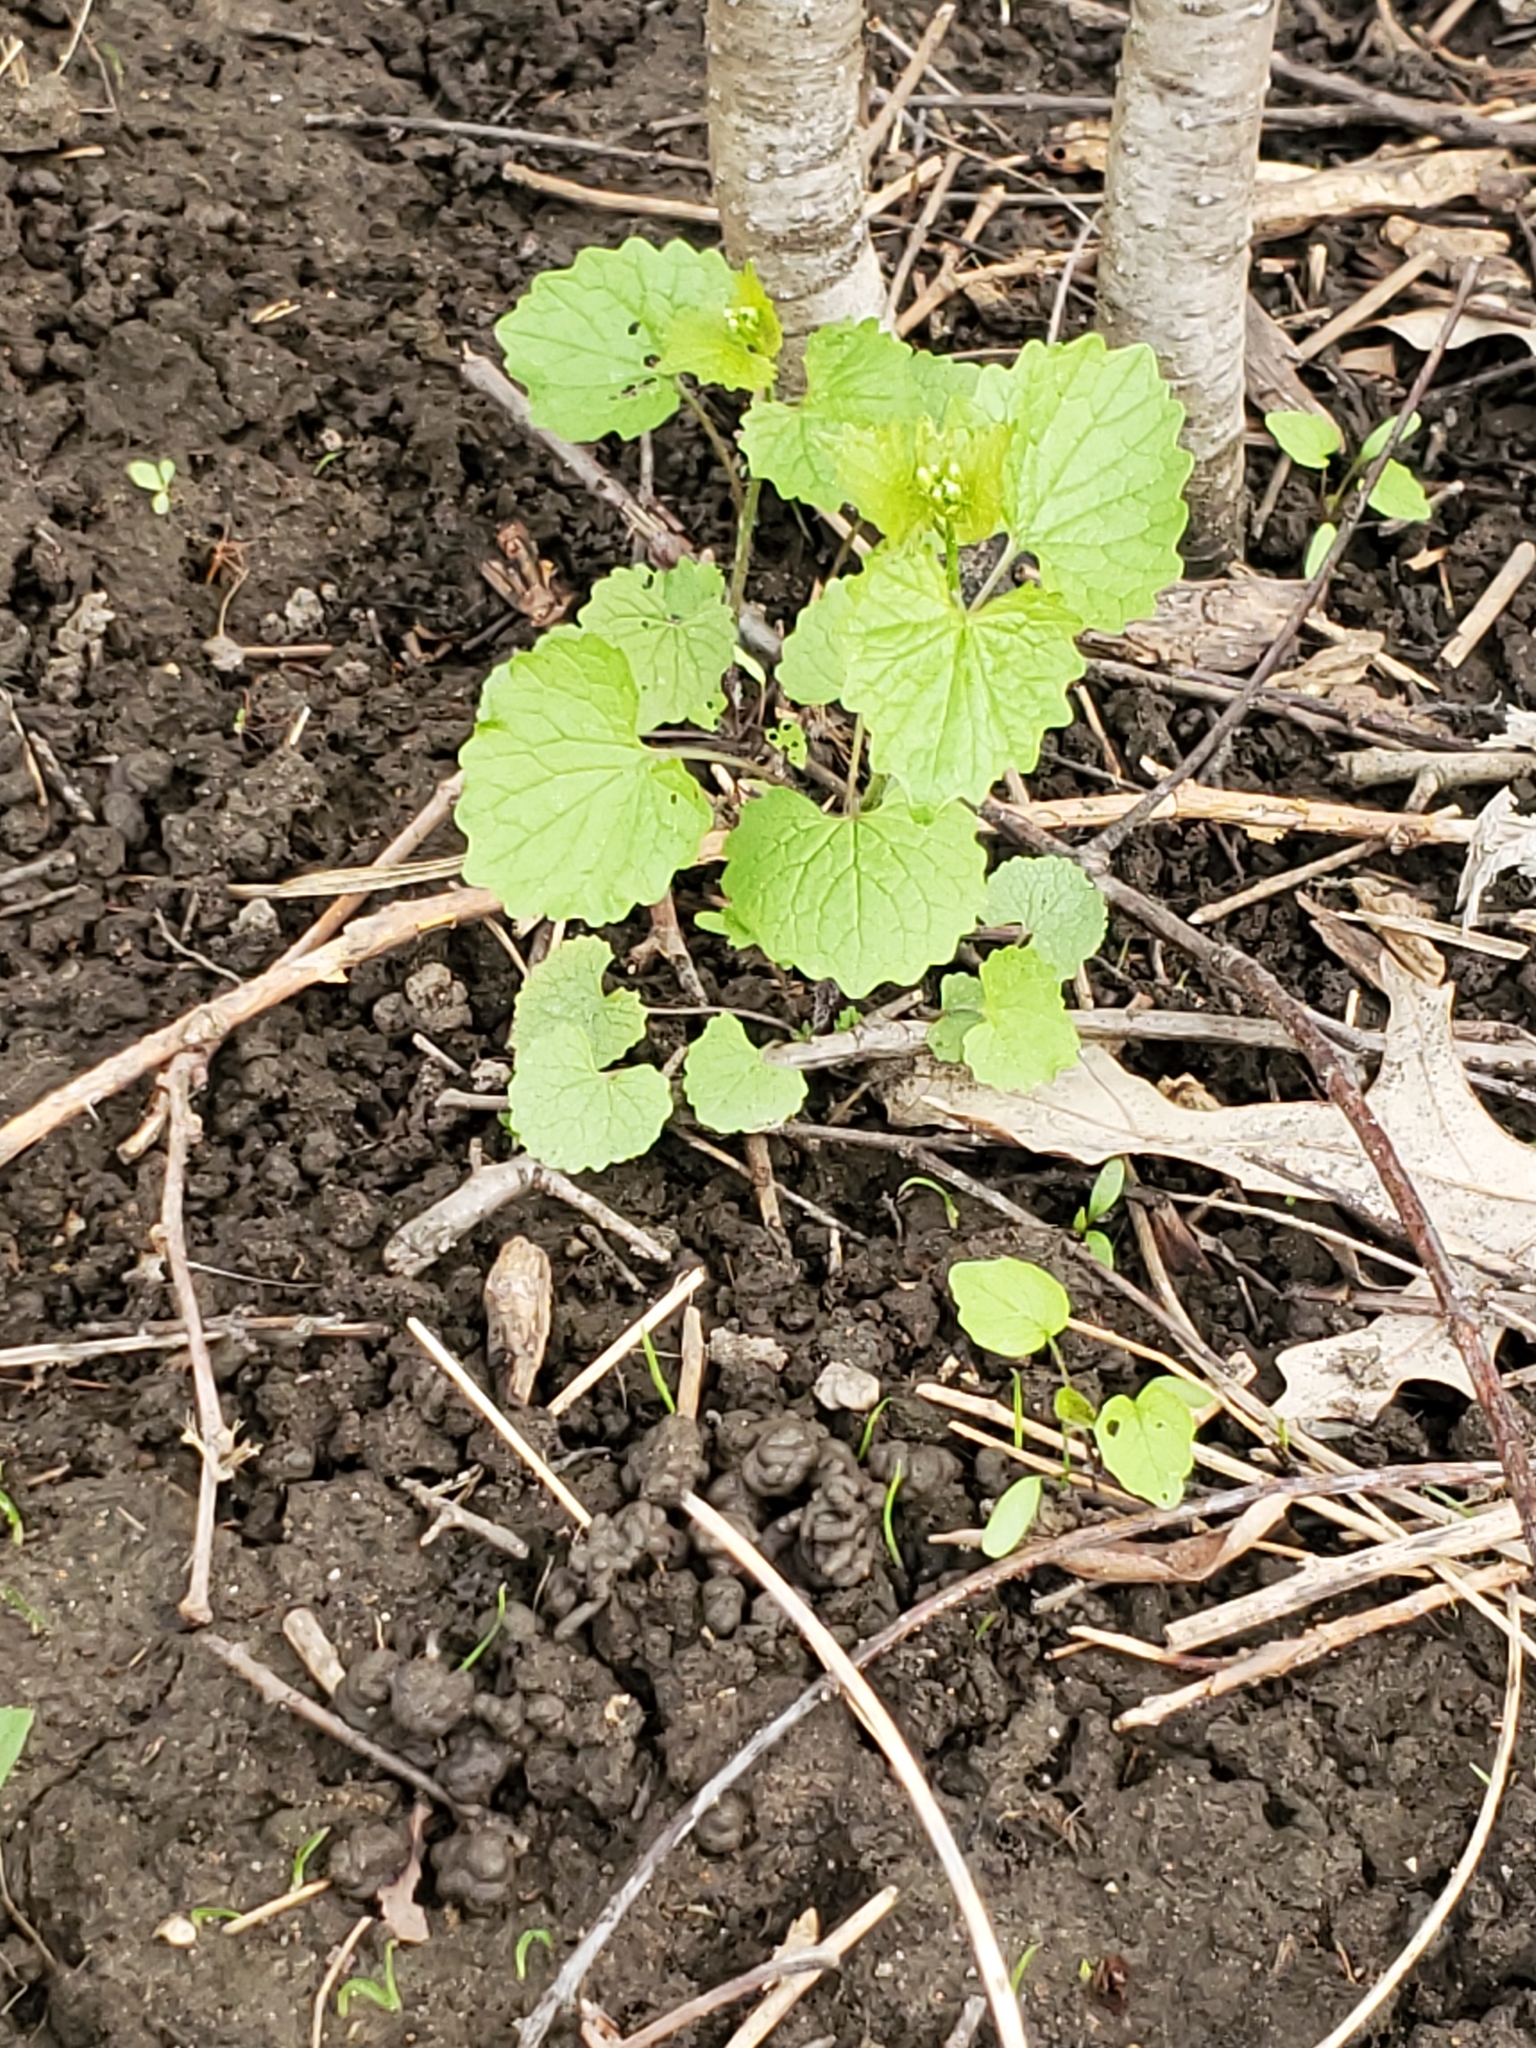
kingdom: Plantae
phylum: Tracheophyta
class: Magnoliopsida
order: Brassicales
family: Brassicaceae
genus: Alliaria
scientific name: Alliaria petiolata
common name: Garlic mustard
